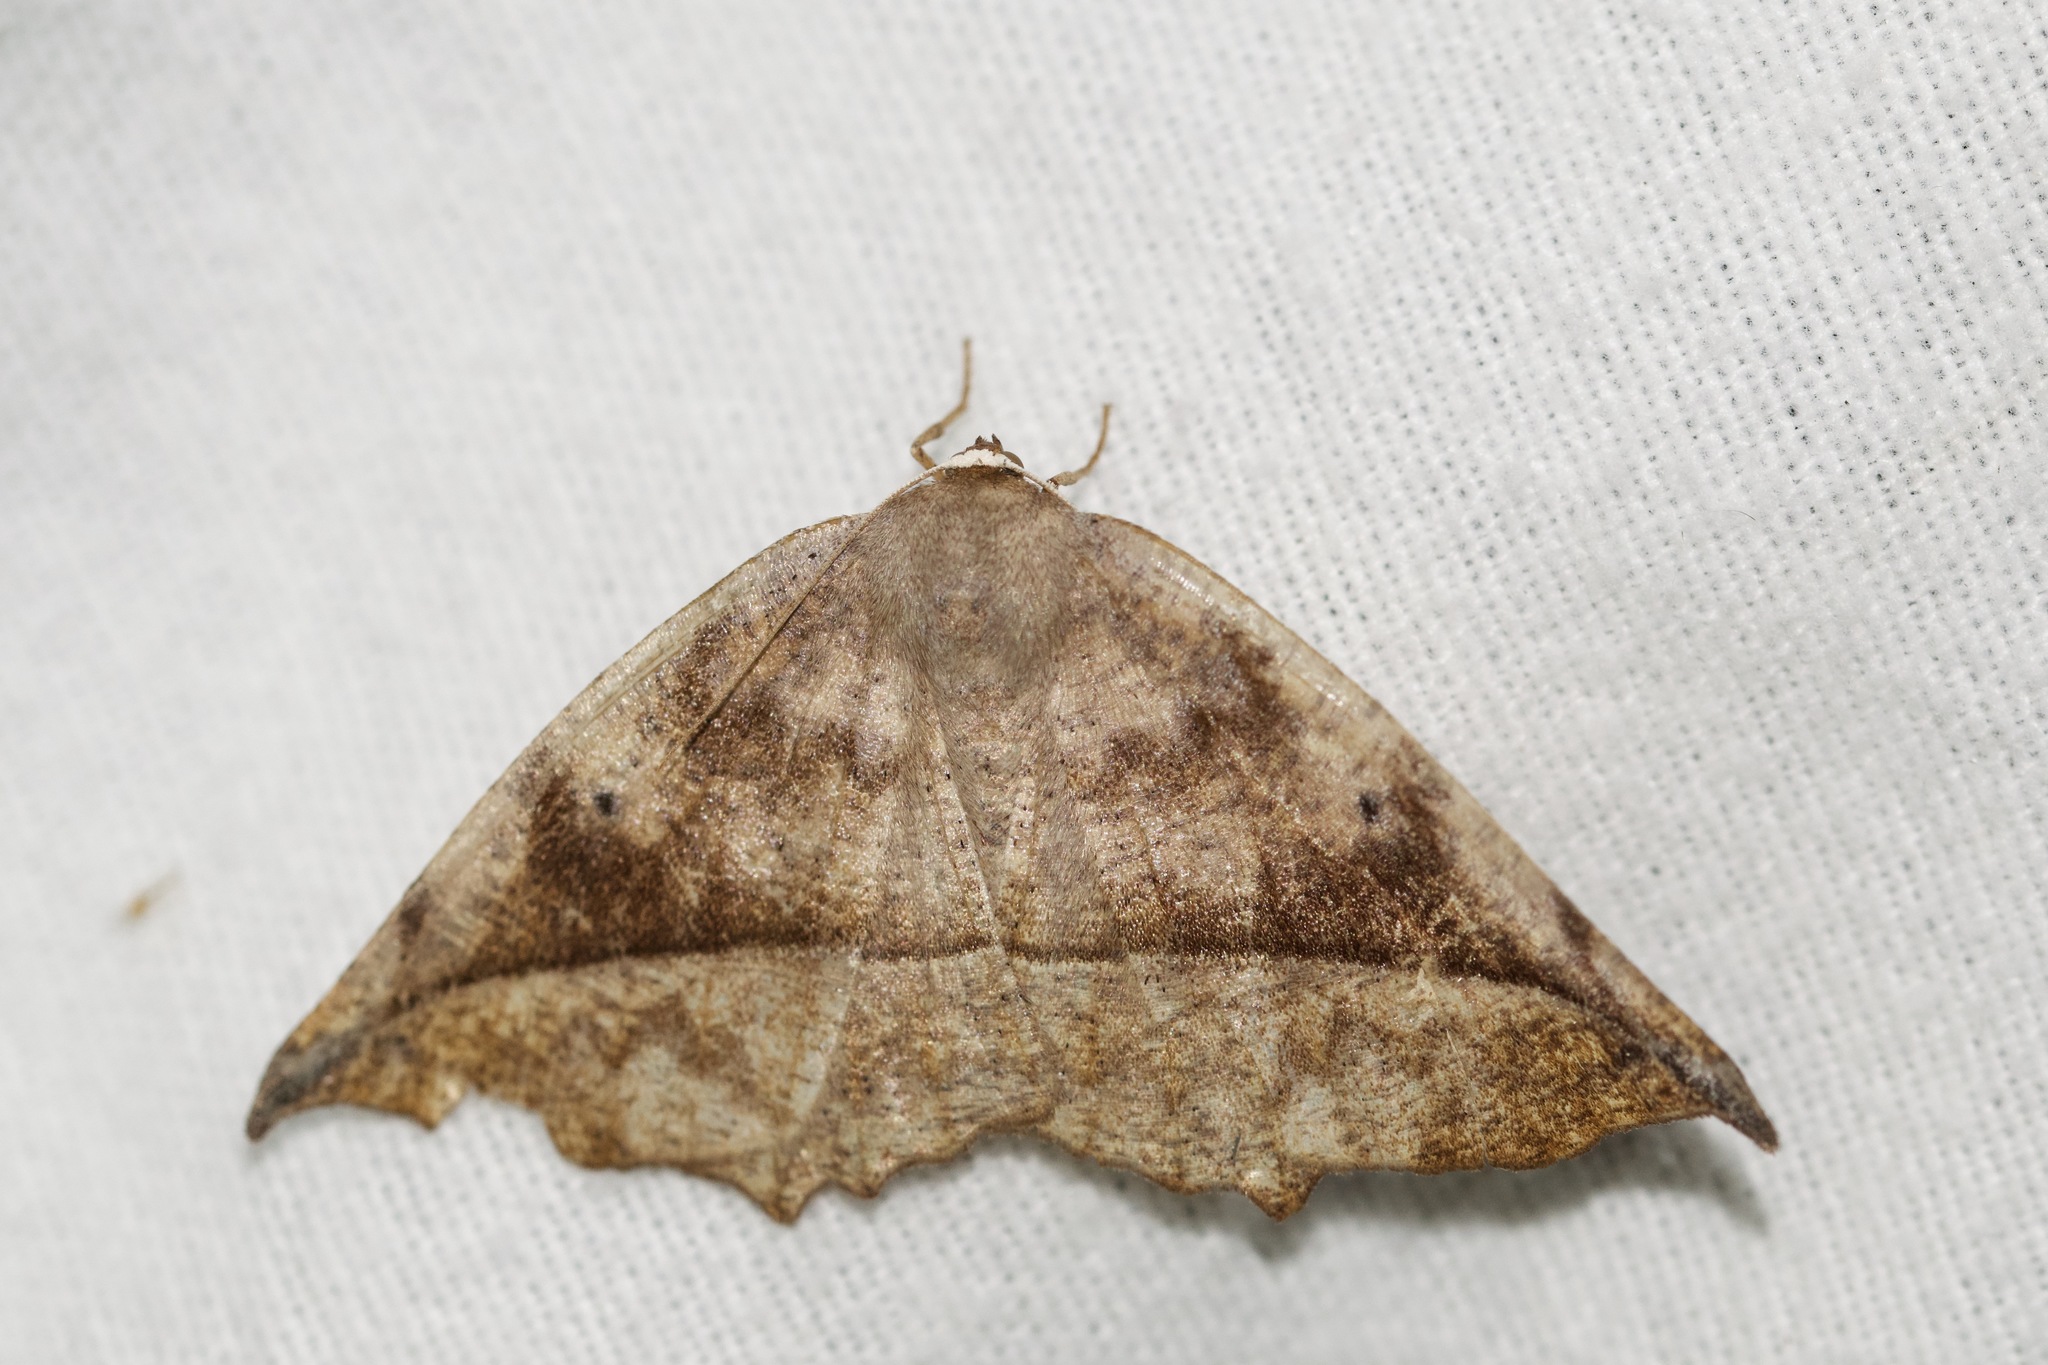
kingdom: Animalia
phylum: Arthropoda
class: Insecta
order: Lepidoptera
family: Geometridae
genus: Eutrapela
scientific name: Eutrapela clemataria
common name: Curved-toothed geometer
